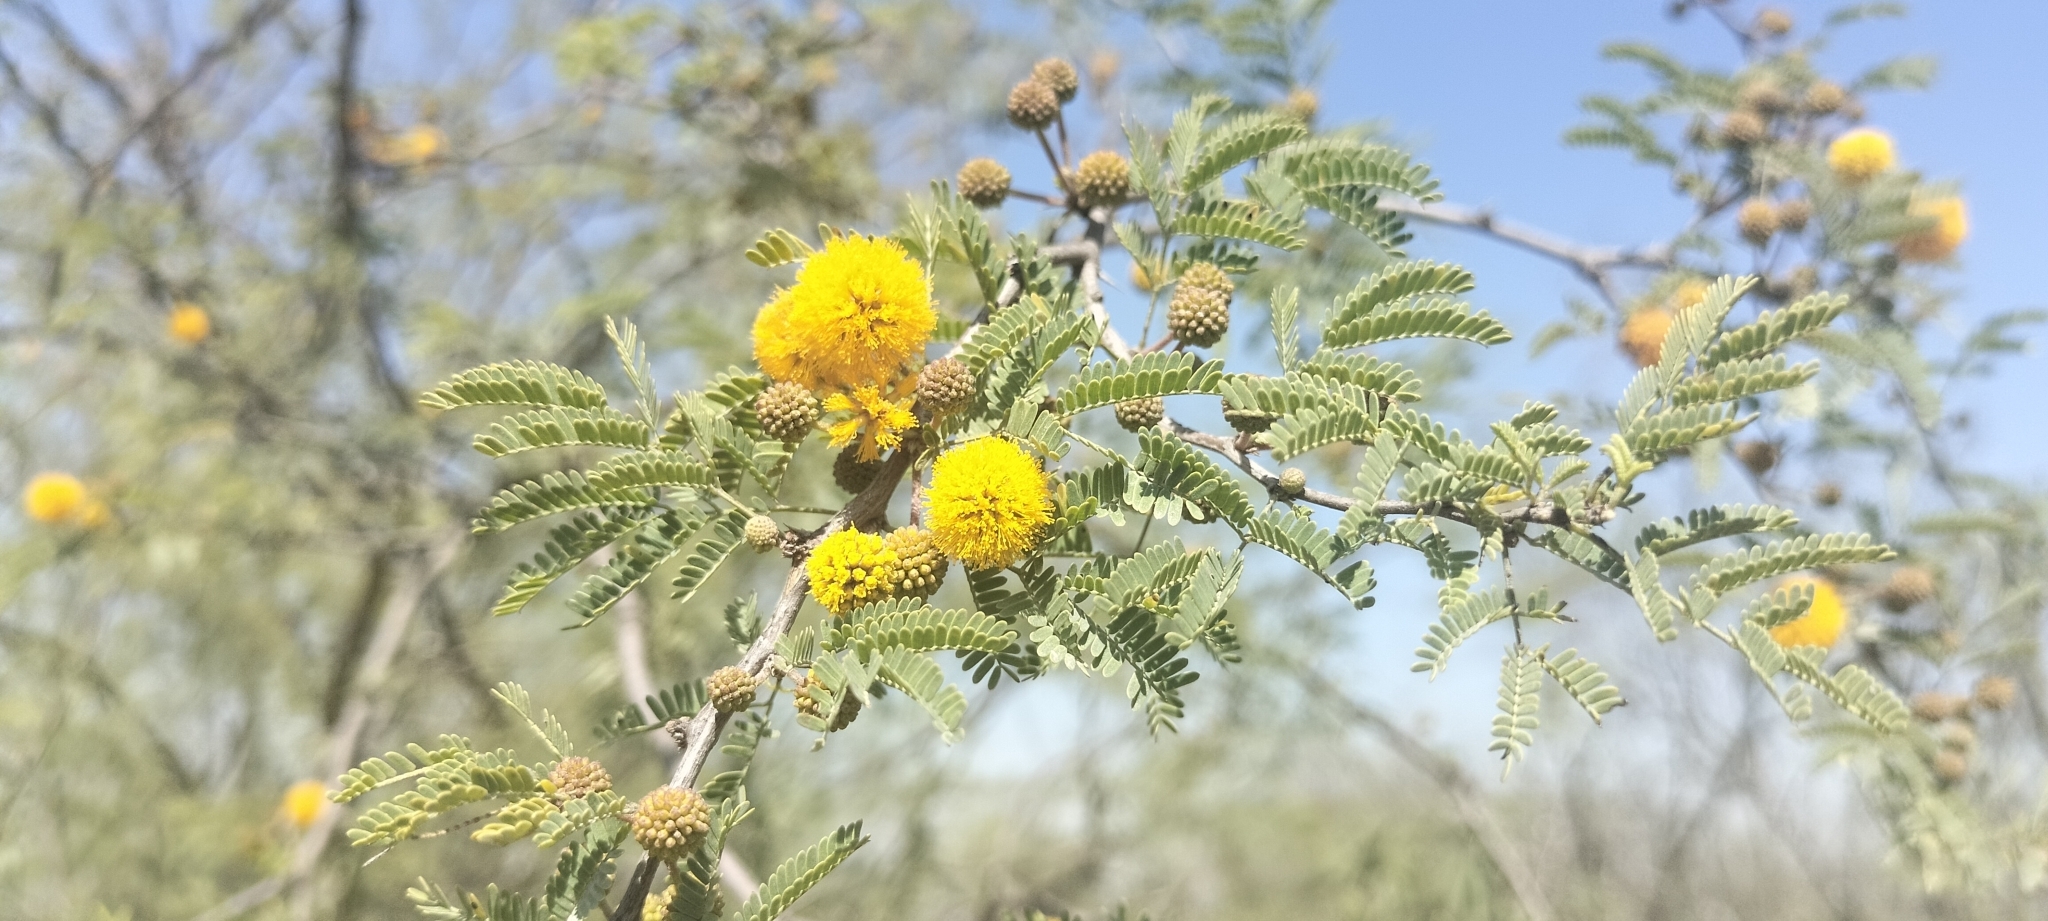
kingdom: Plantae
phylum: Tracheophyta
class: Magnoliopsida
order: Fabales
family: Fabaceae
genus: Vachellia
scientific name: Vachellia farnesiana
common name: Sweet acacia
